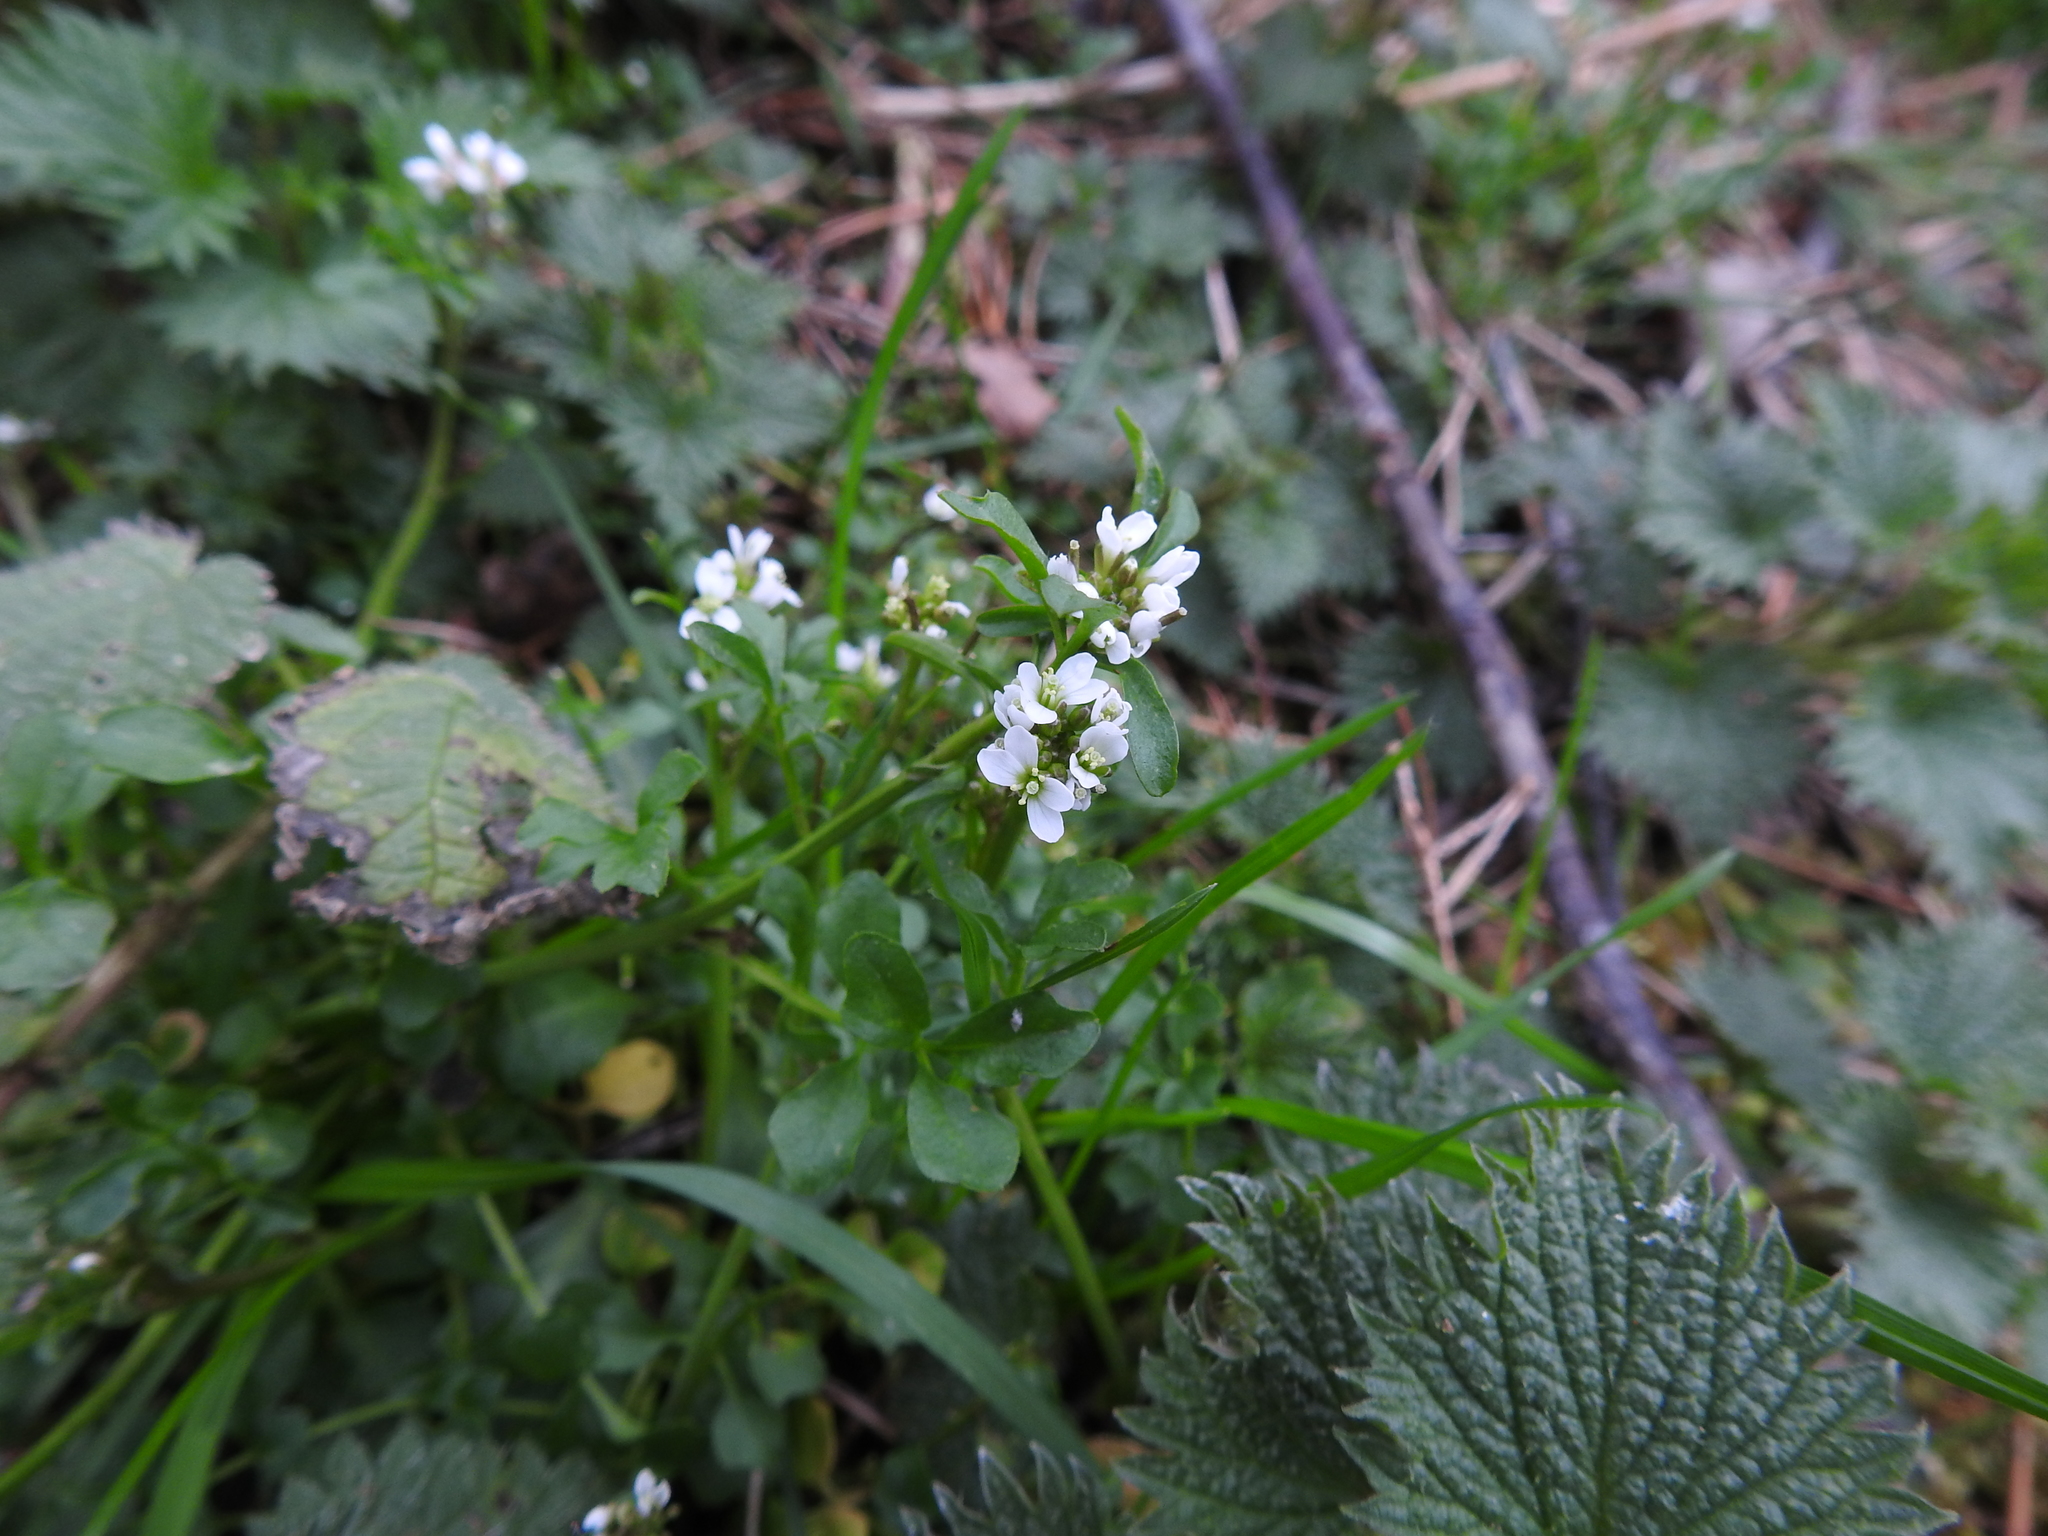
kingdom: Plantae
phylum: Tracheophyta
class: Magnoliopsida
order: Brassicales
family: Brassicaceae
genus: Cardamine
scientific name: Cardamine hirsuta
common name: Hairy bittercress
